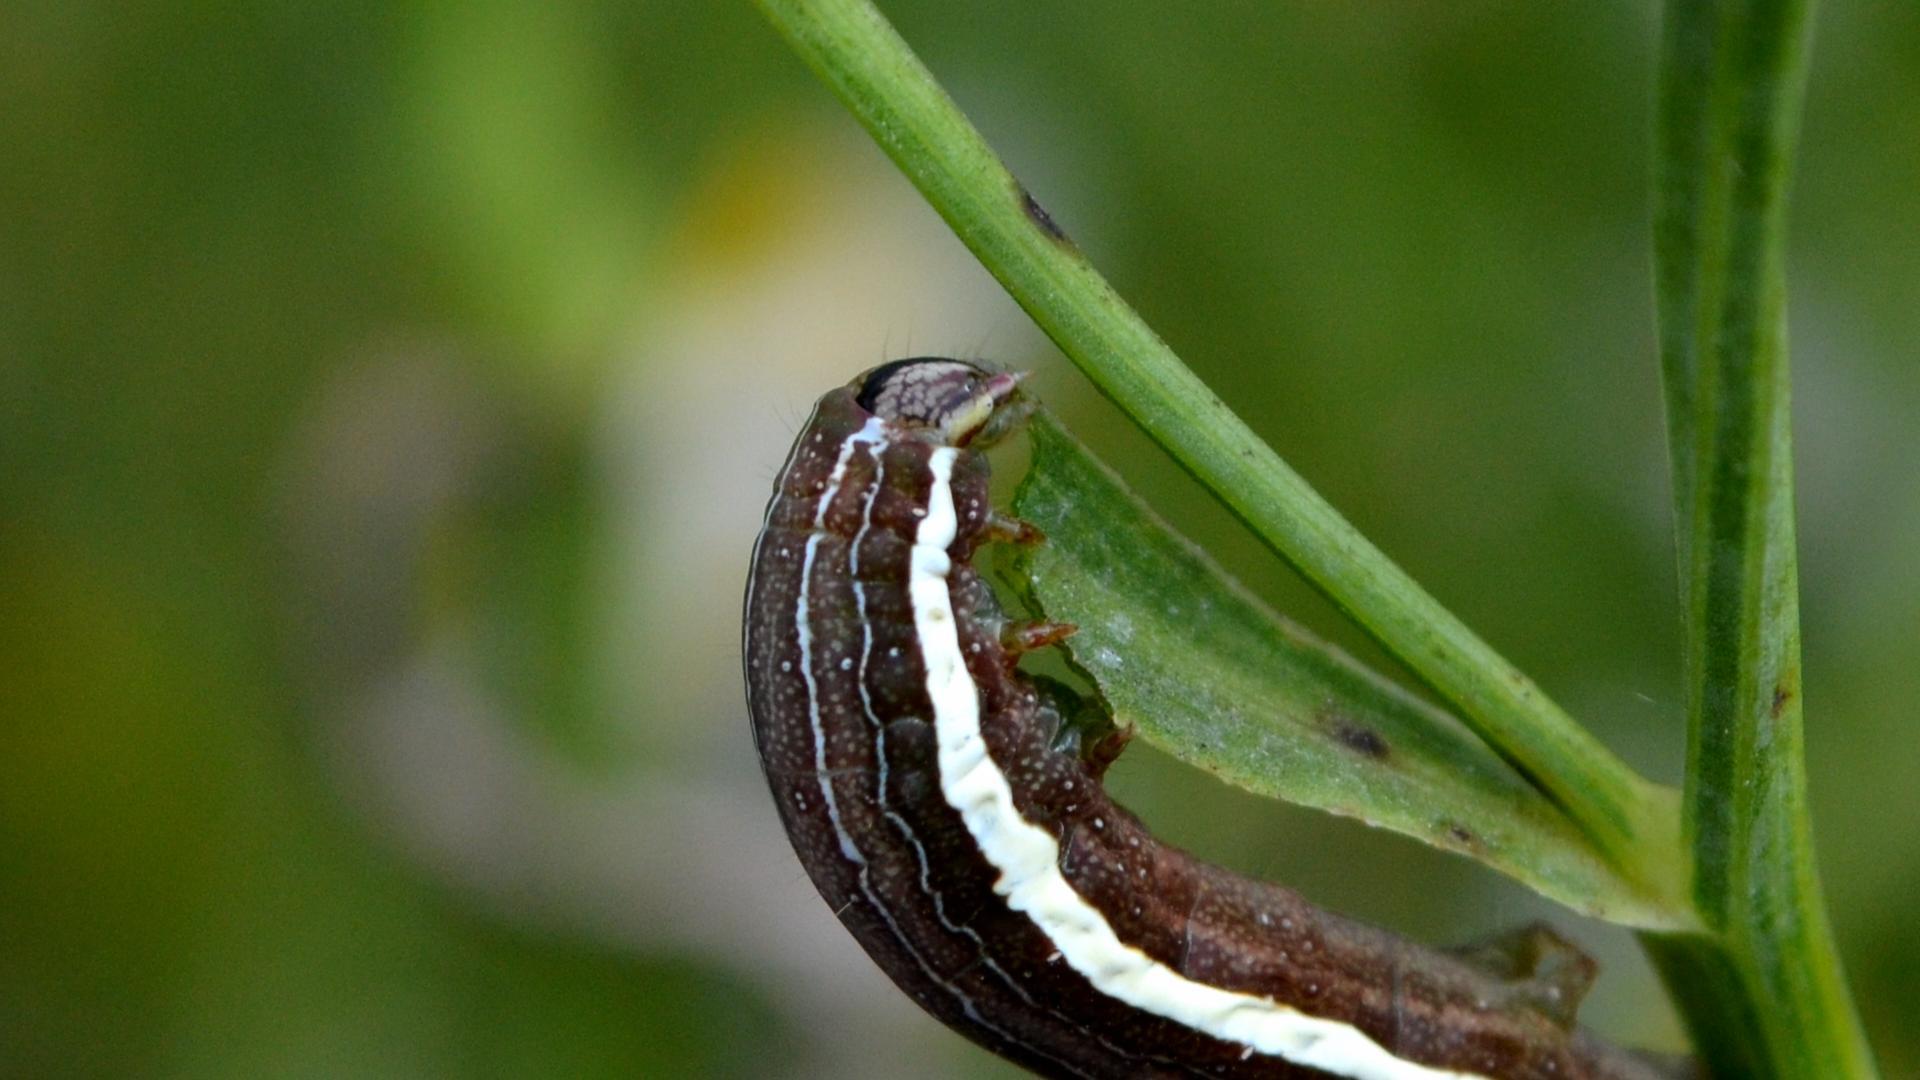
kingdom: Animalia
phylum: Arthropoda
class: Insecta
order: Lepidoptera
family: Noctuidae
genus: Condica
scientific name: Condica videns
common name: White-dotted groundling
